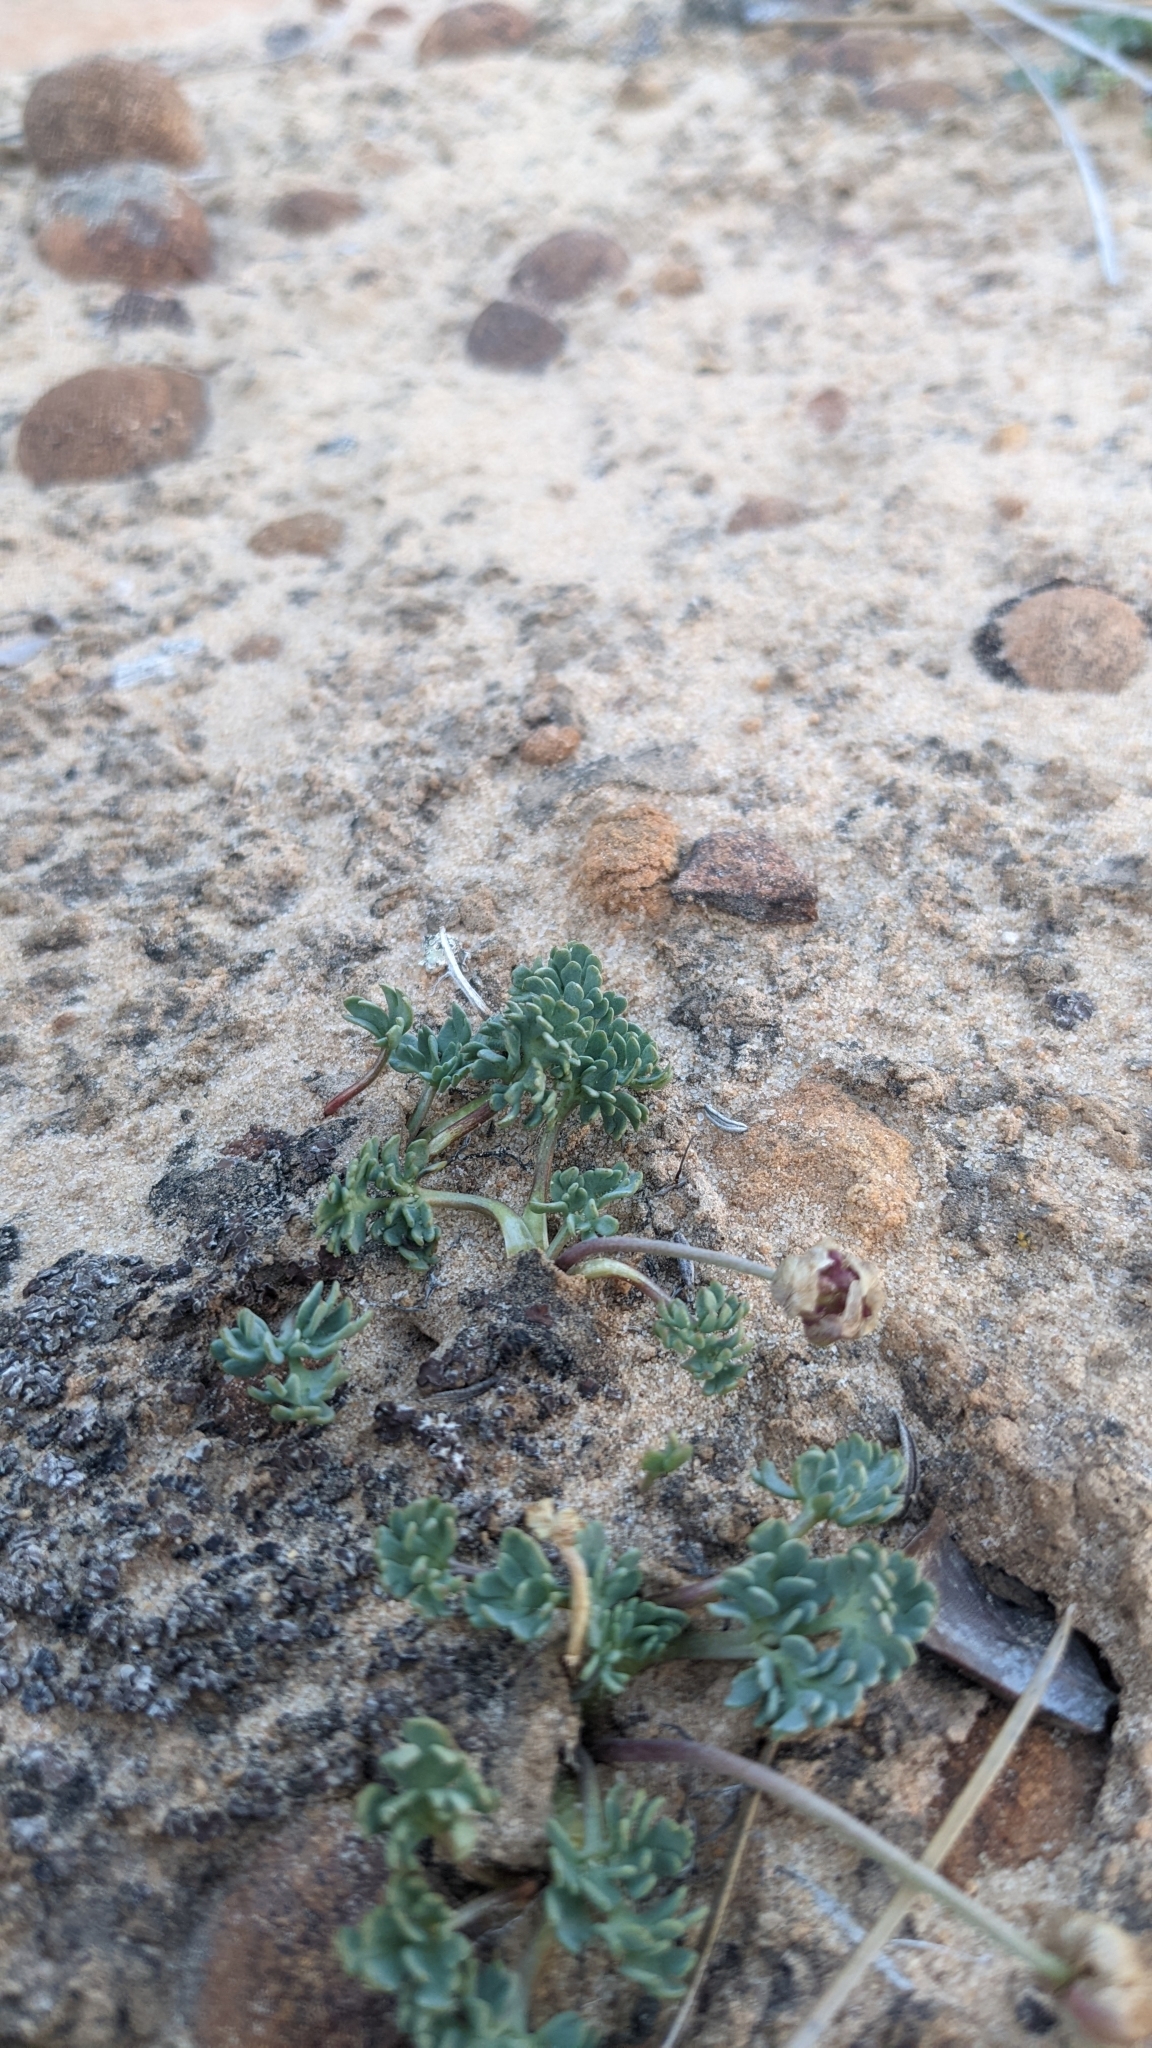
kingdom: Plantae
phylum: Tracheophyta
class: Magnoliopsida
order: Ranunculales
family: Ranunculaceae
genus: Beckwithia
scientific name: Beckwithia andersonii
